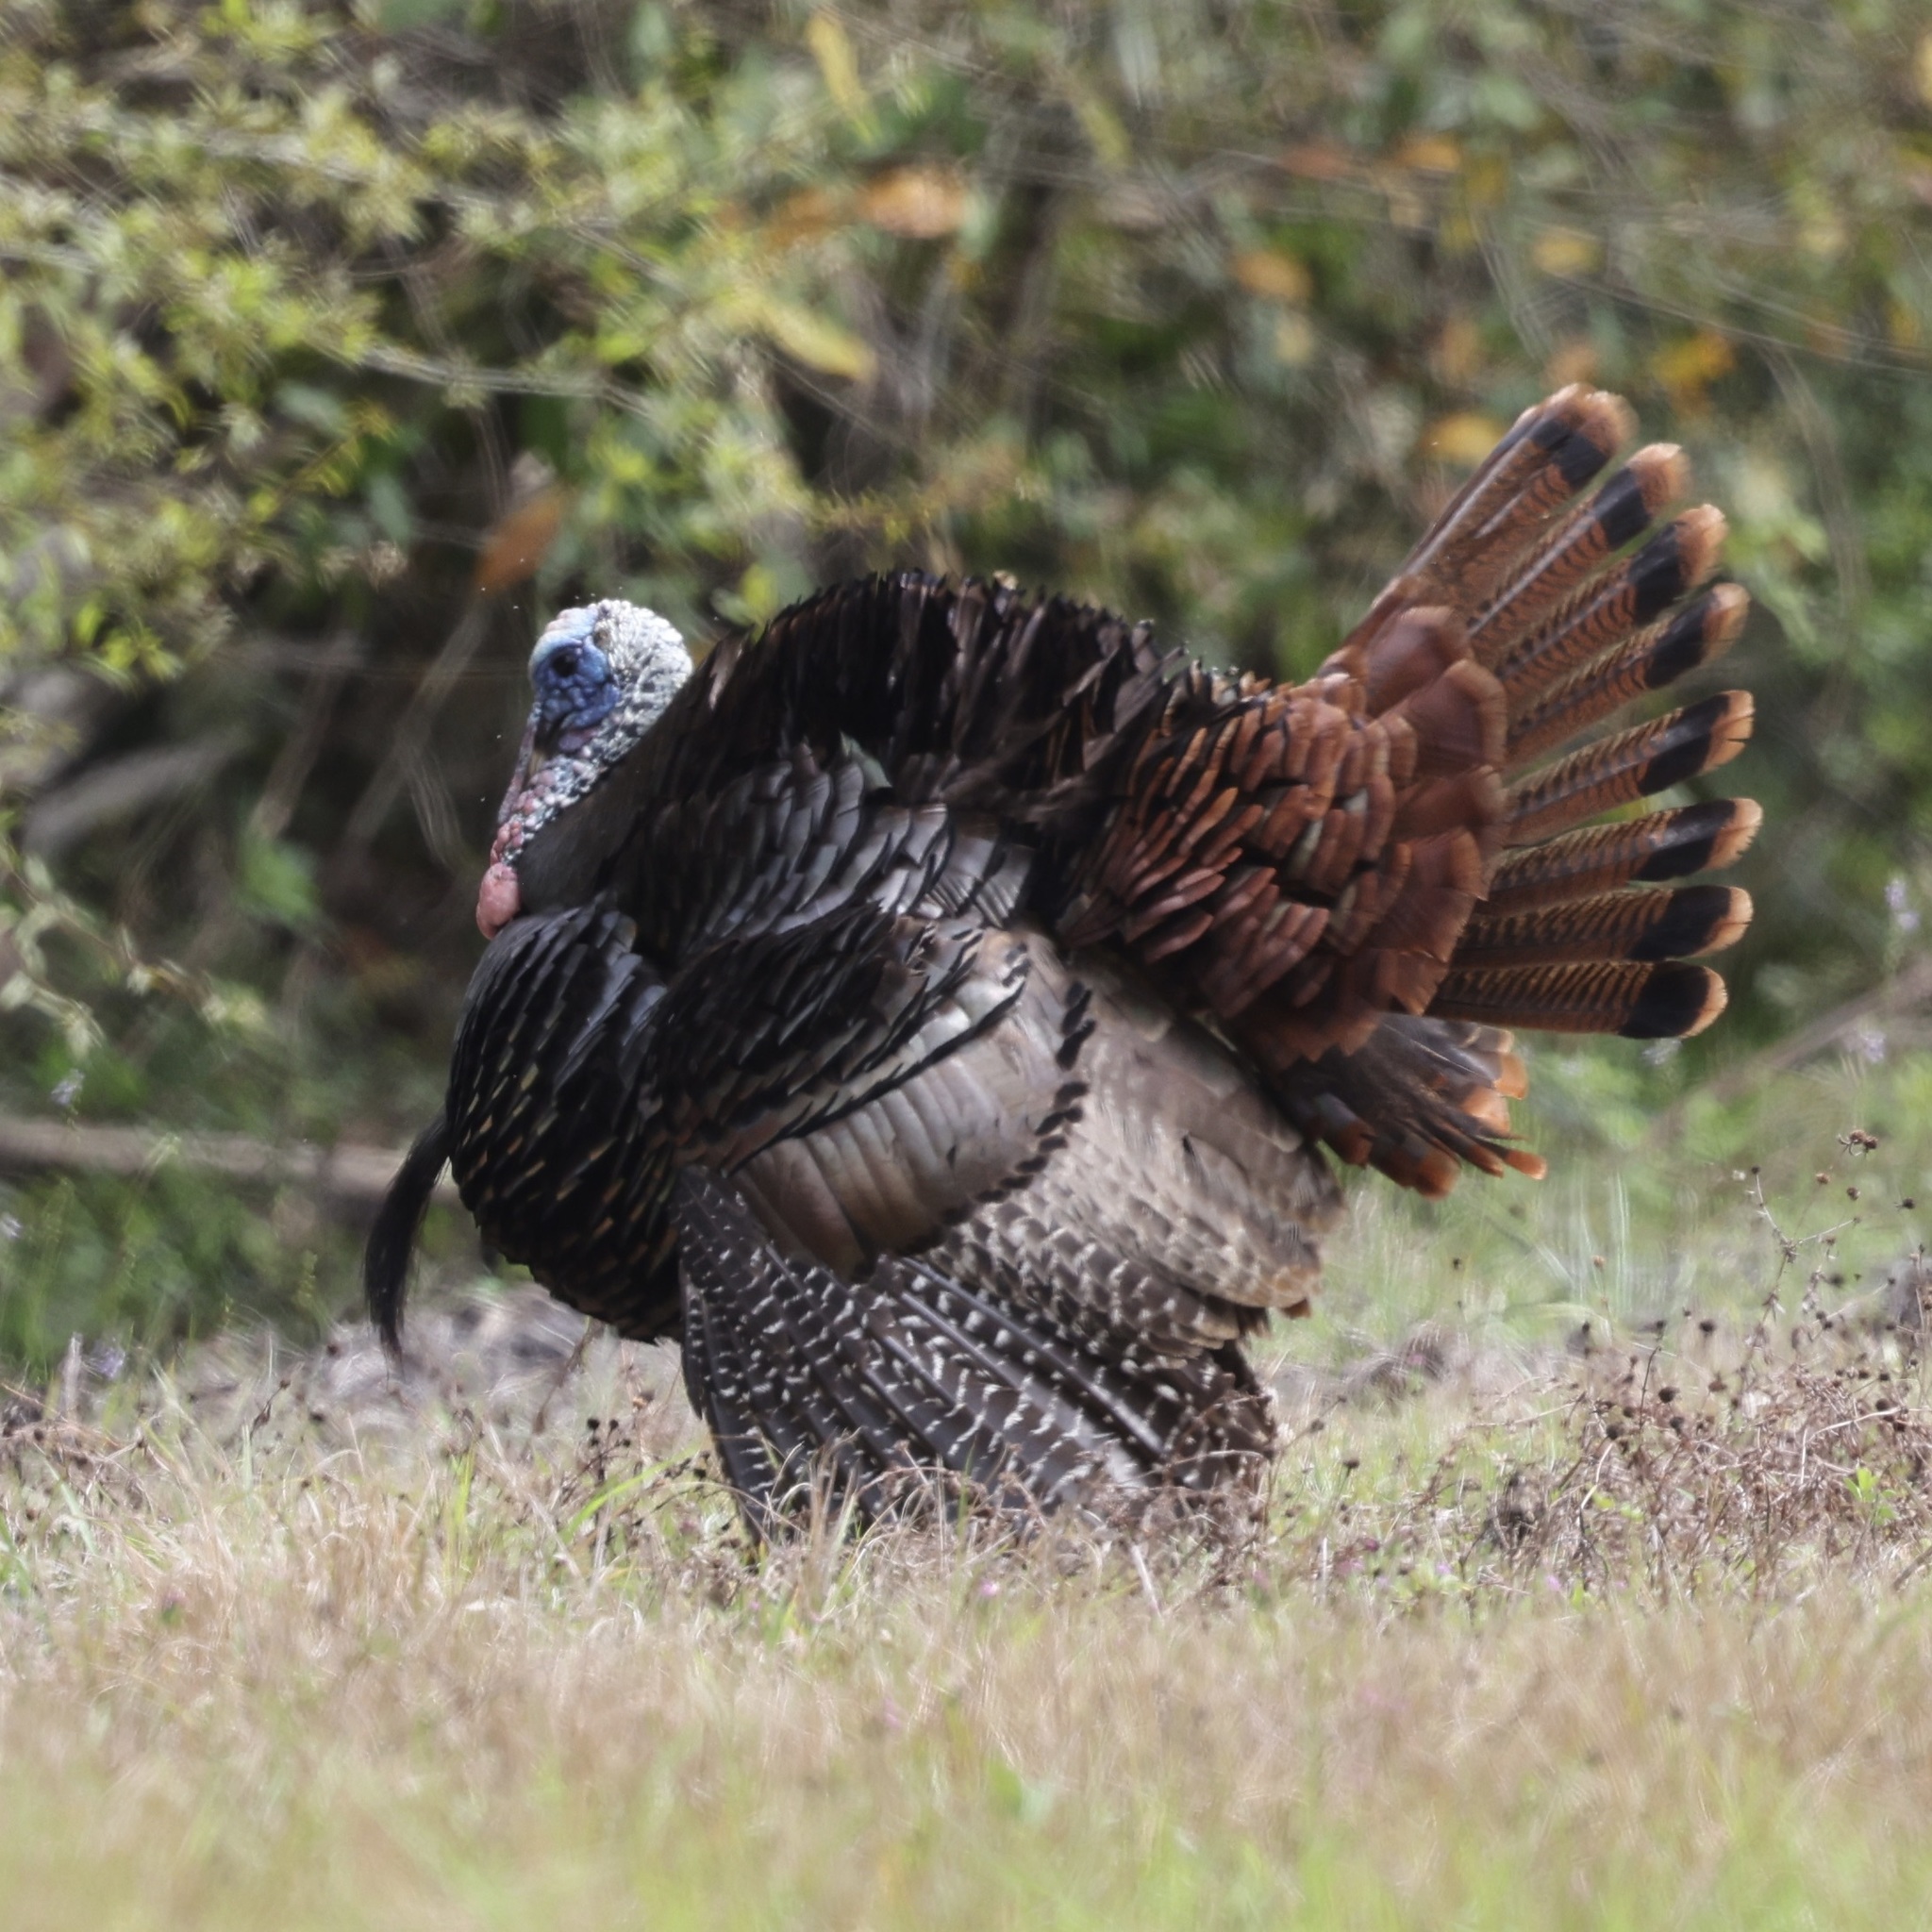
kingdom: Animalia
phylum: Chordata
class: Aves
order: Galliformes
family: Phasianidae
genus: Meleagris
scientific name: Meleagris gallopavo
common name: Wild turkey
